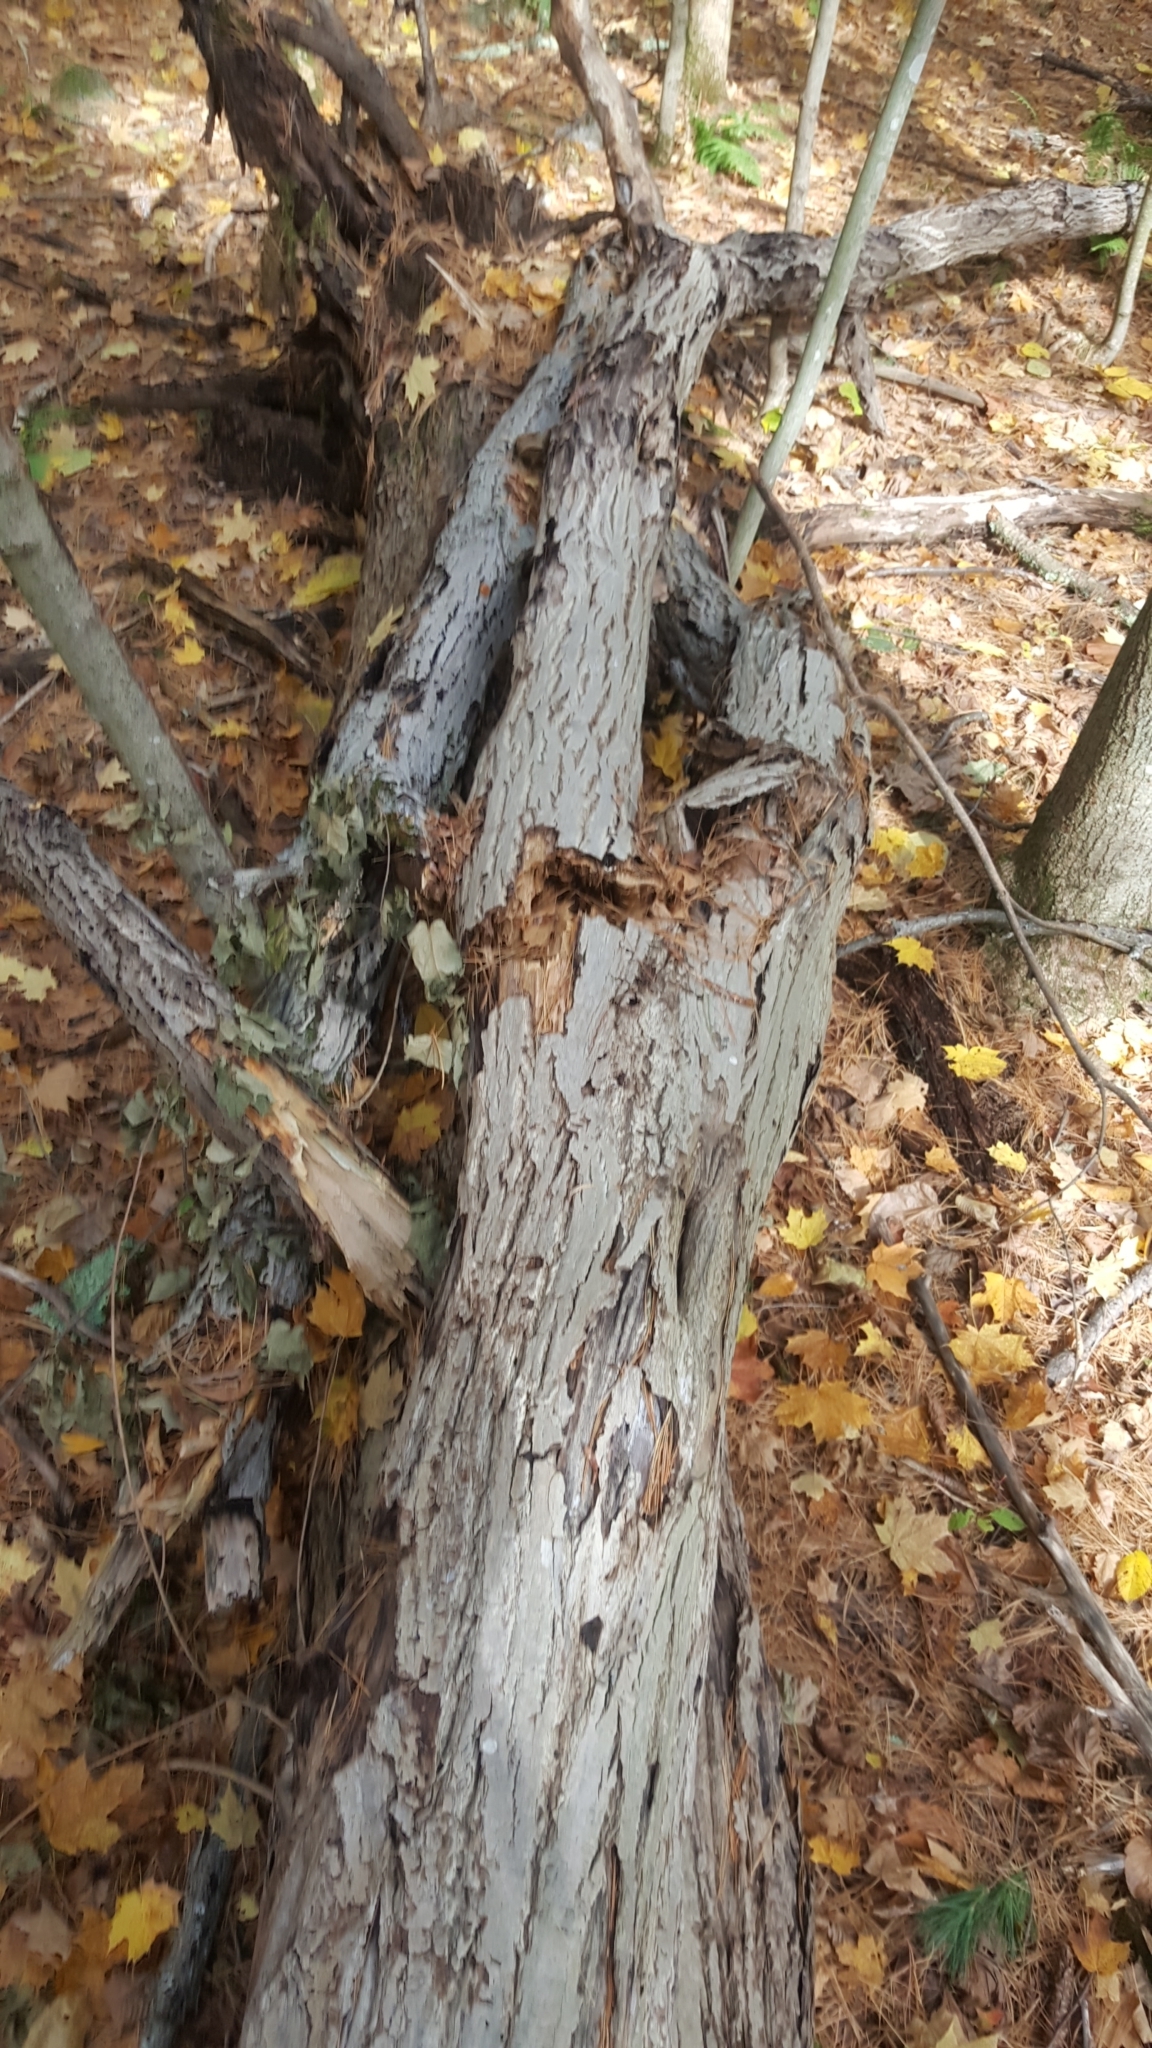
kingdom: Plantae
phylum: Tracheophyta
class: Magnoliopsida
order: Fagales
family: Juglandaceae
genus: Juglans
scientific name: Juglans cinerea
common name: Butternut
